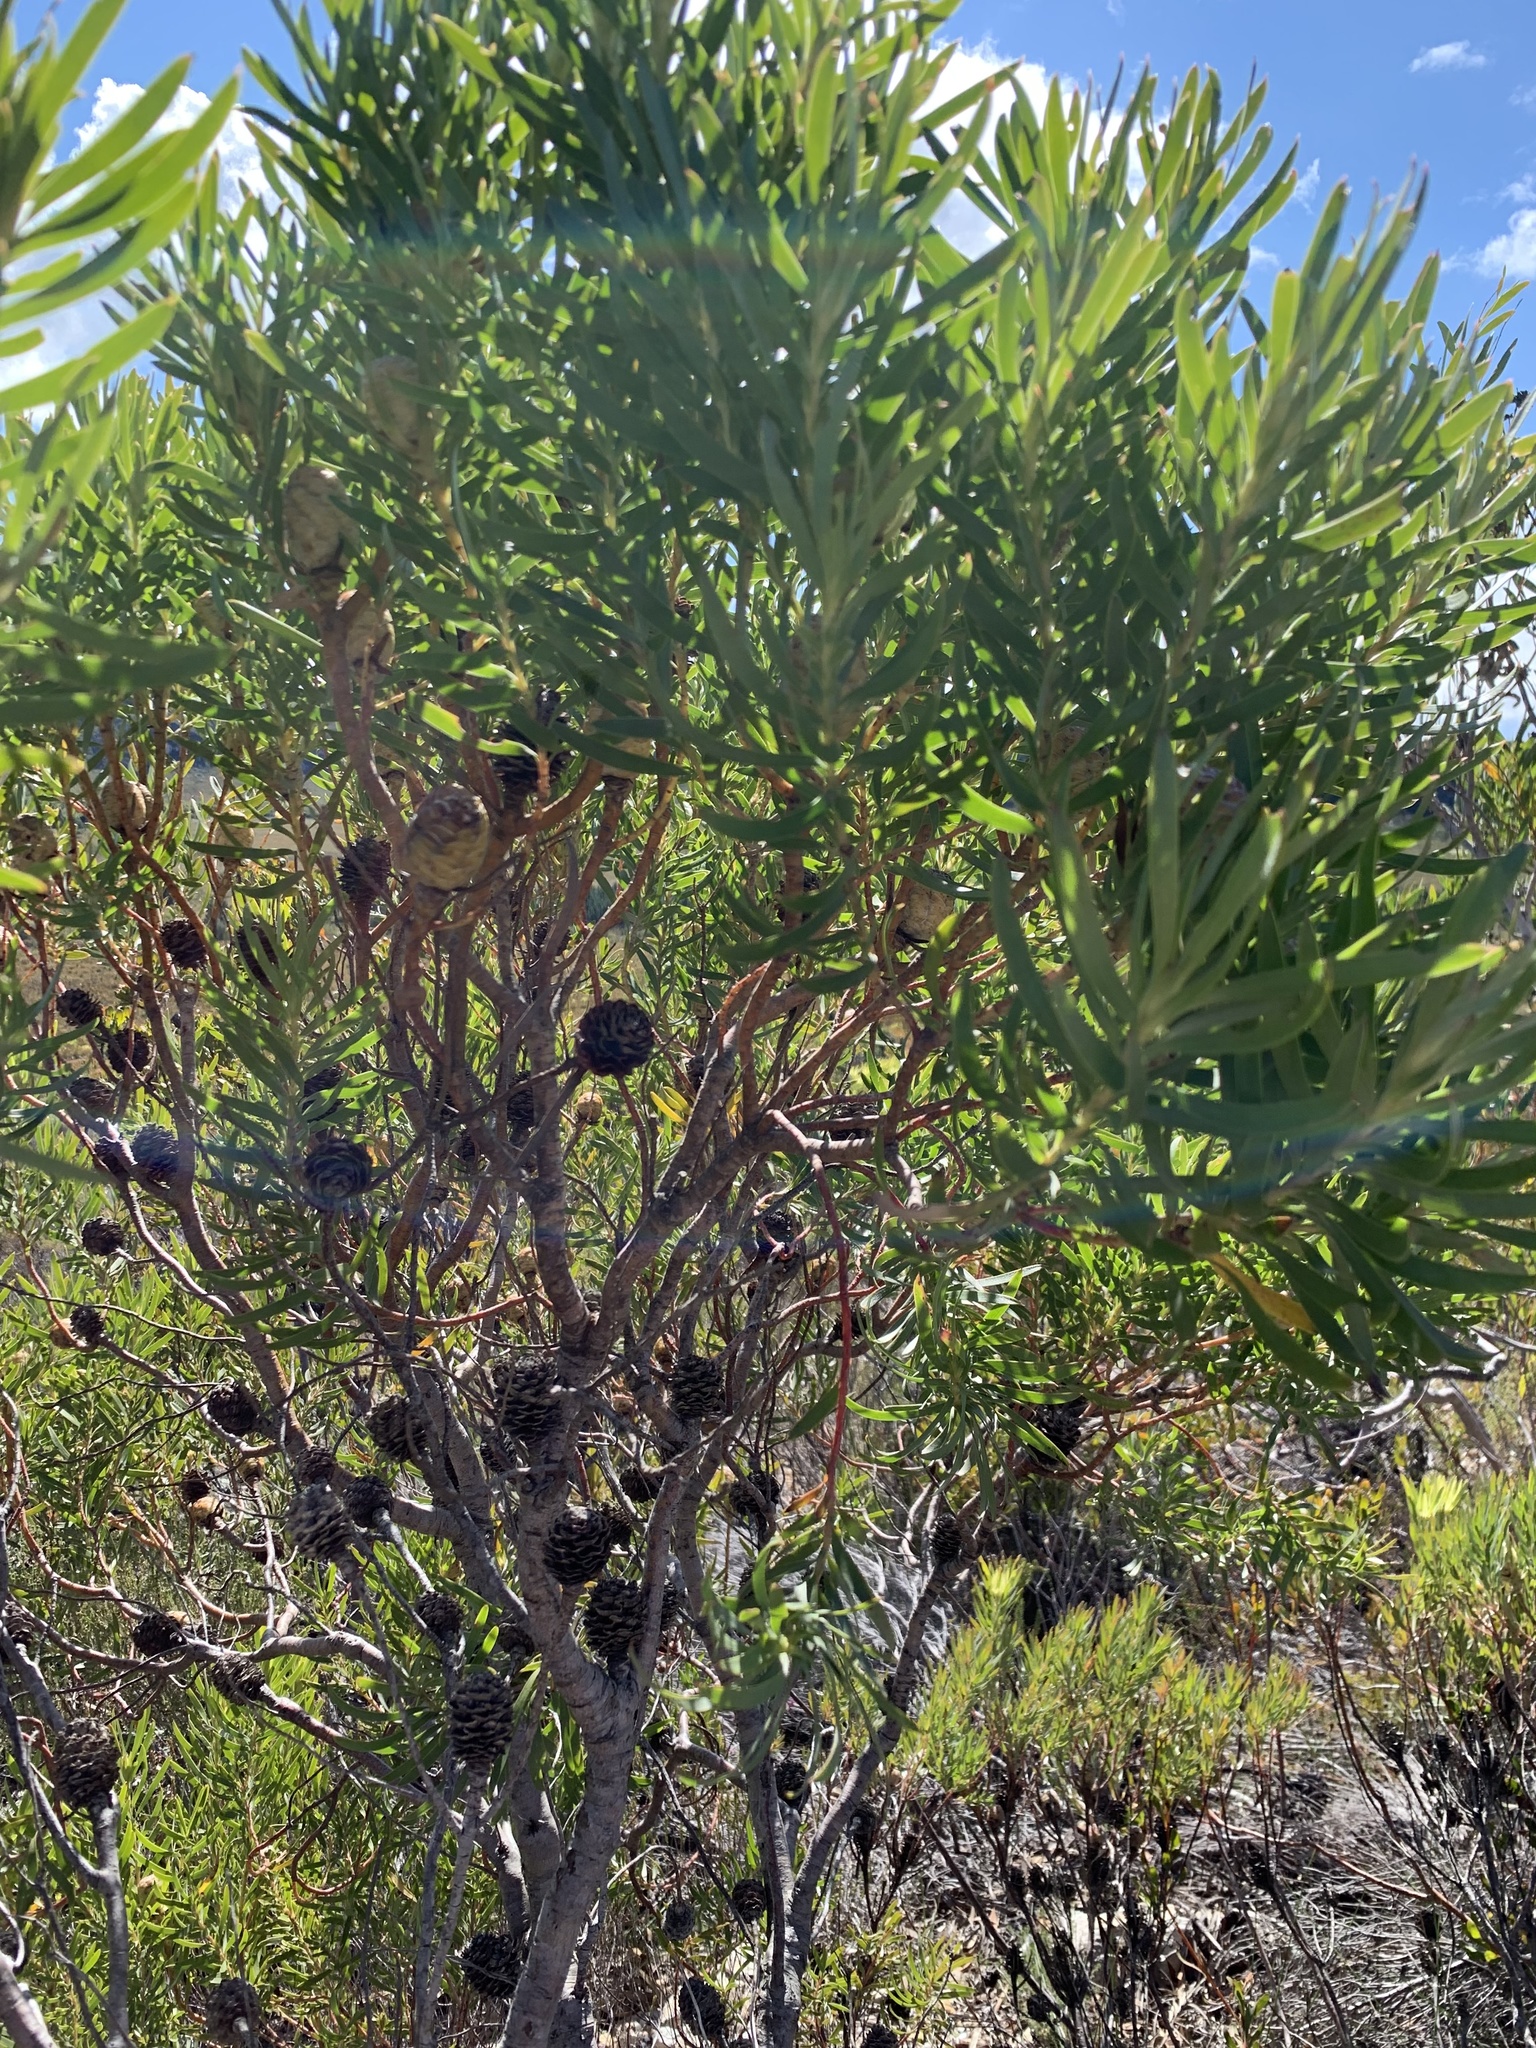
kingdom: Plantae
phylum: Tracheophyta
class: Magnoliopsida
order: Proteales
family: Proteaceae
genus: Leucadendron
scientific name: Leucadendron coniferum
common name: Dune conebush
